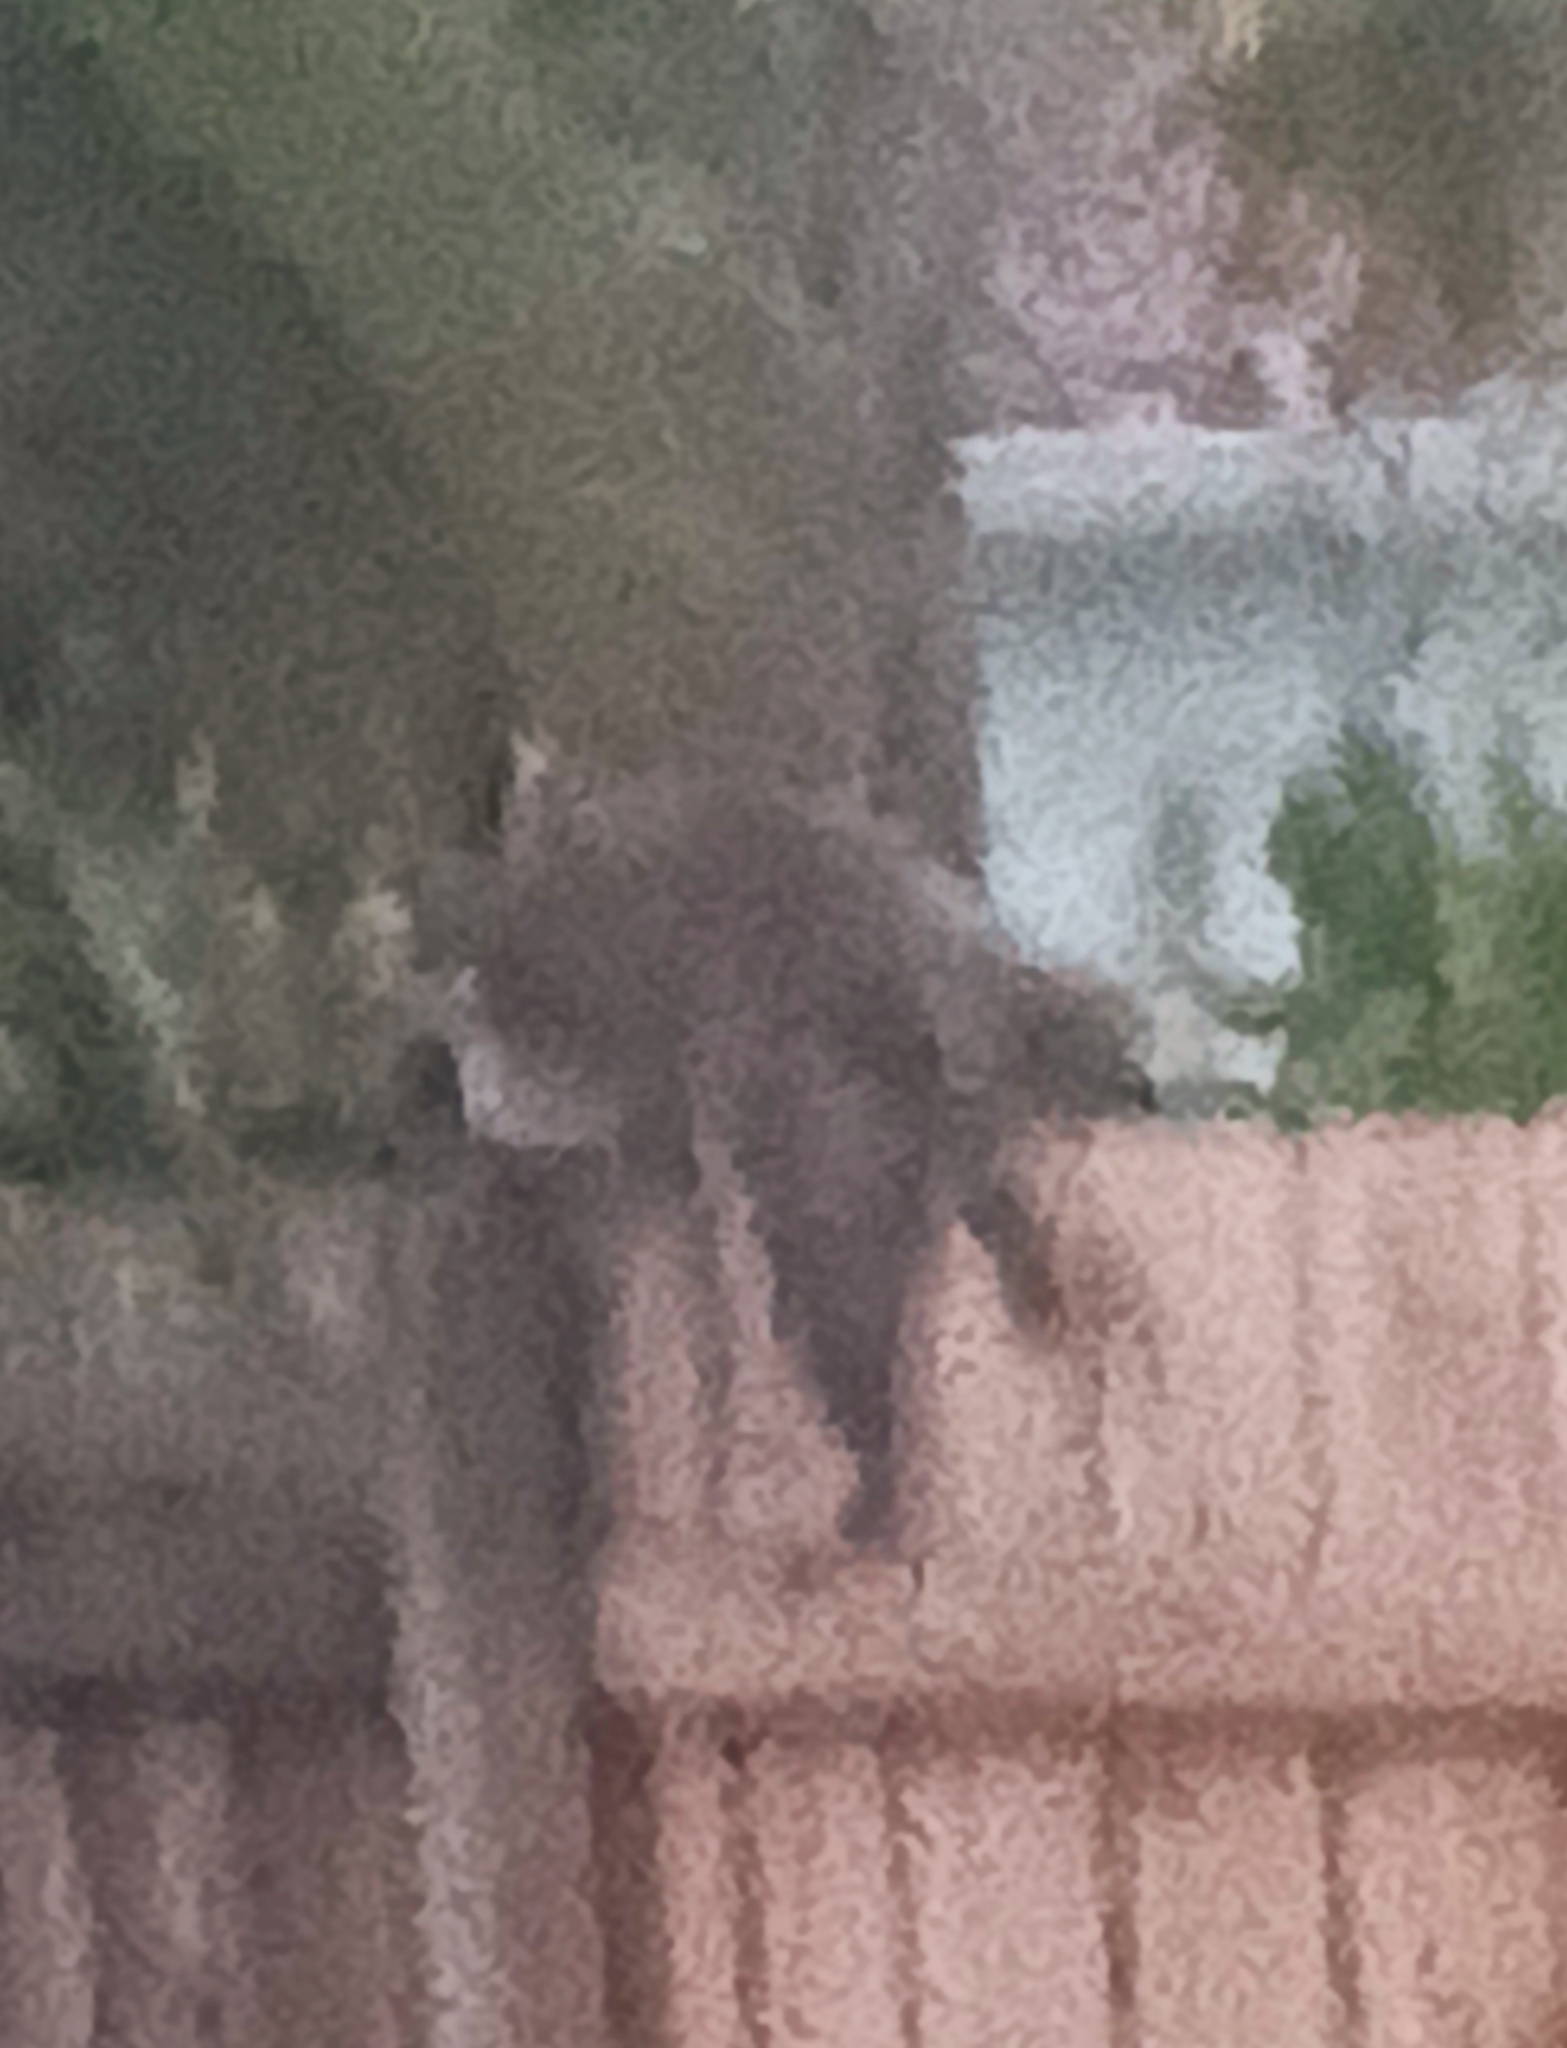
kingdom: Animalia
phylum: Chordata
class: Mammalia
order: Carnivora
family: Procyonidae
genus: Procyon
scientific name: Procyon lotor
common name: Raccoon
